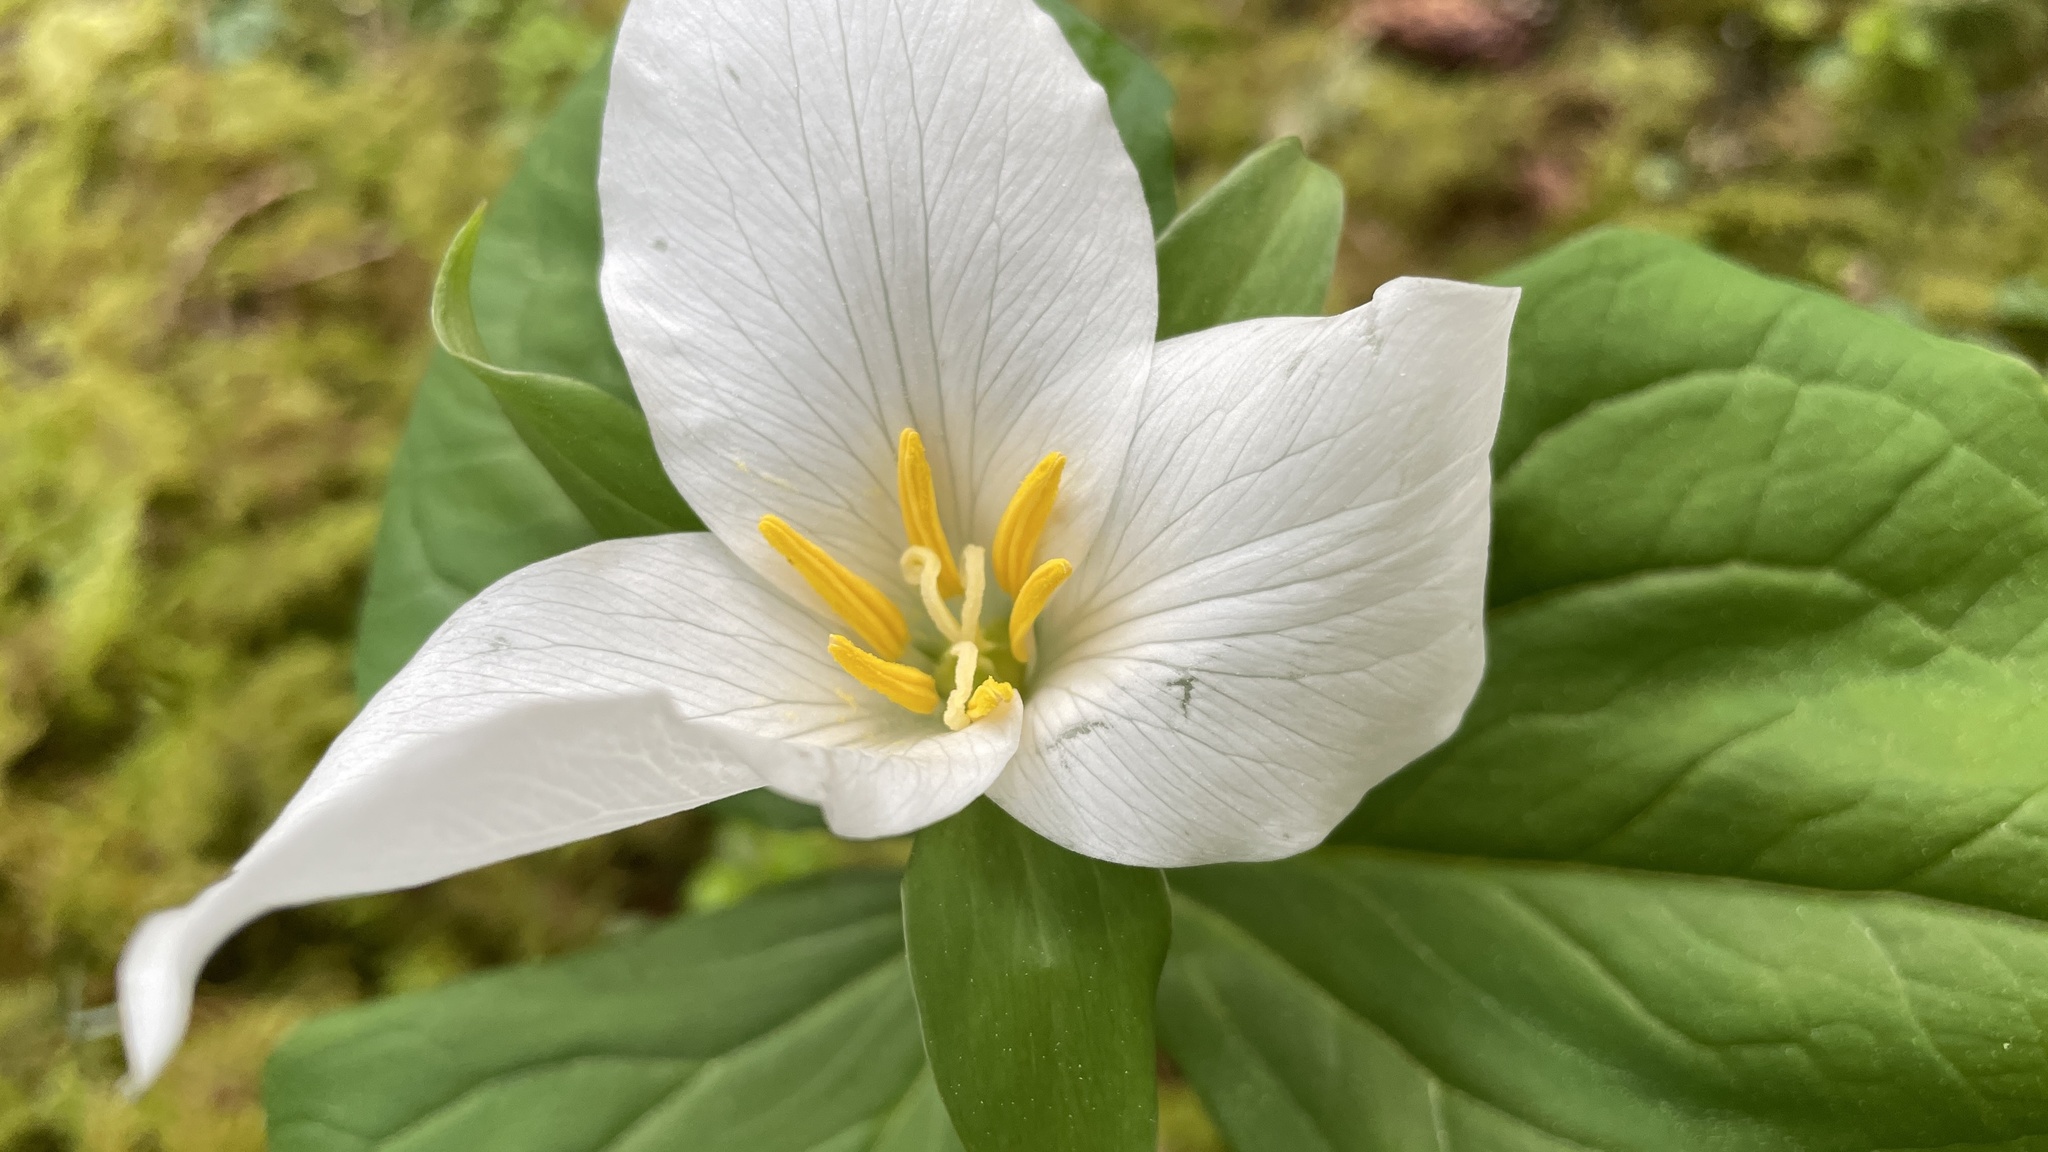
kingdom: Plantae
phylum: Tracheophyta
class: Liliopsida
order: Liliales
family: Melanthiaceae
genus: Trillium
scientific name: Trillium ovatum
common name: Pacific trillium
